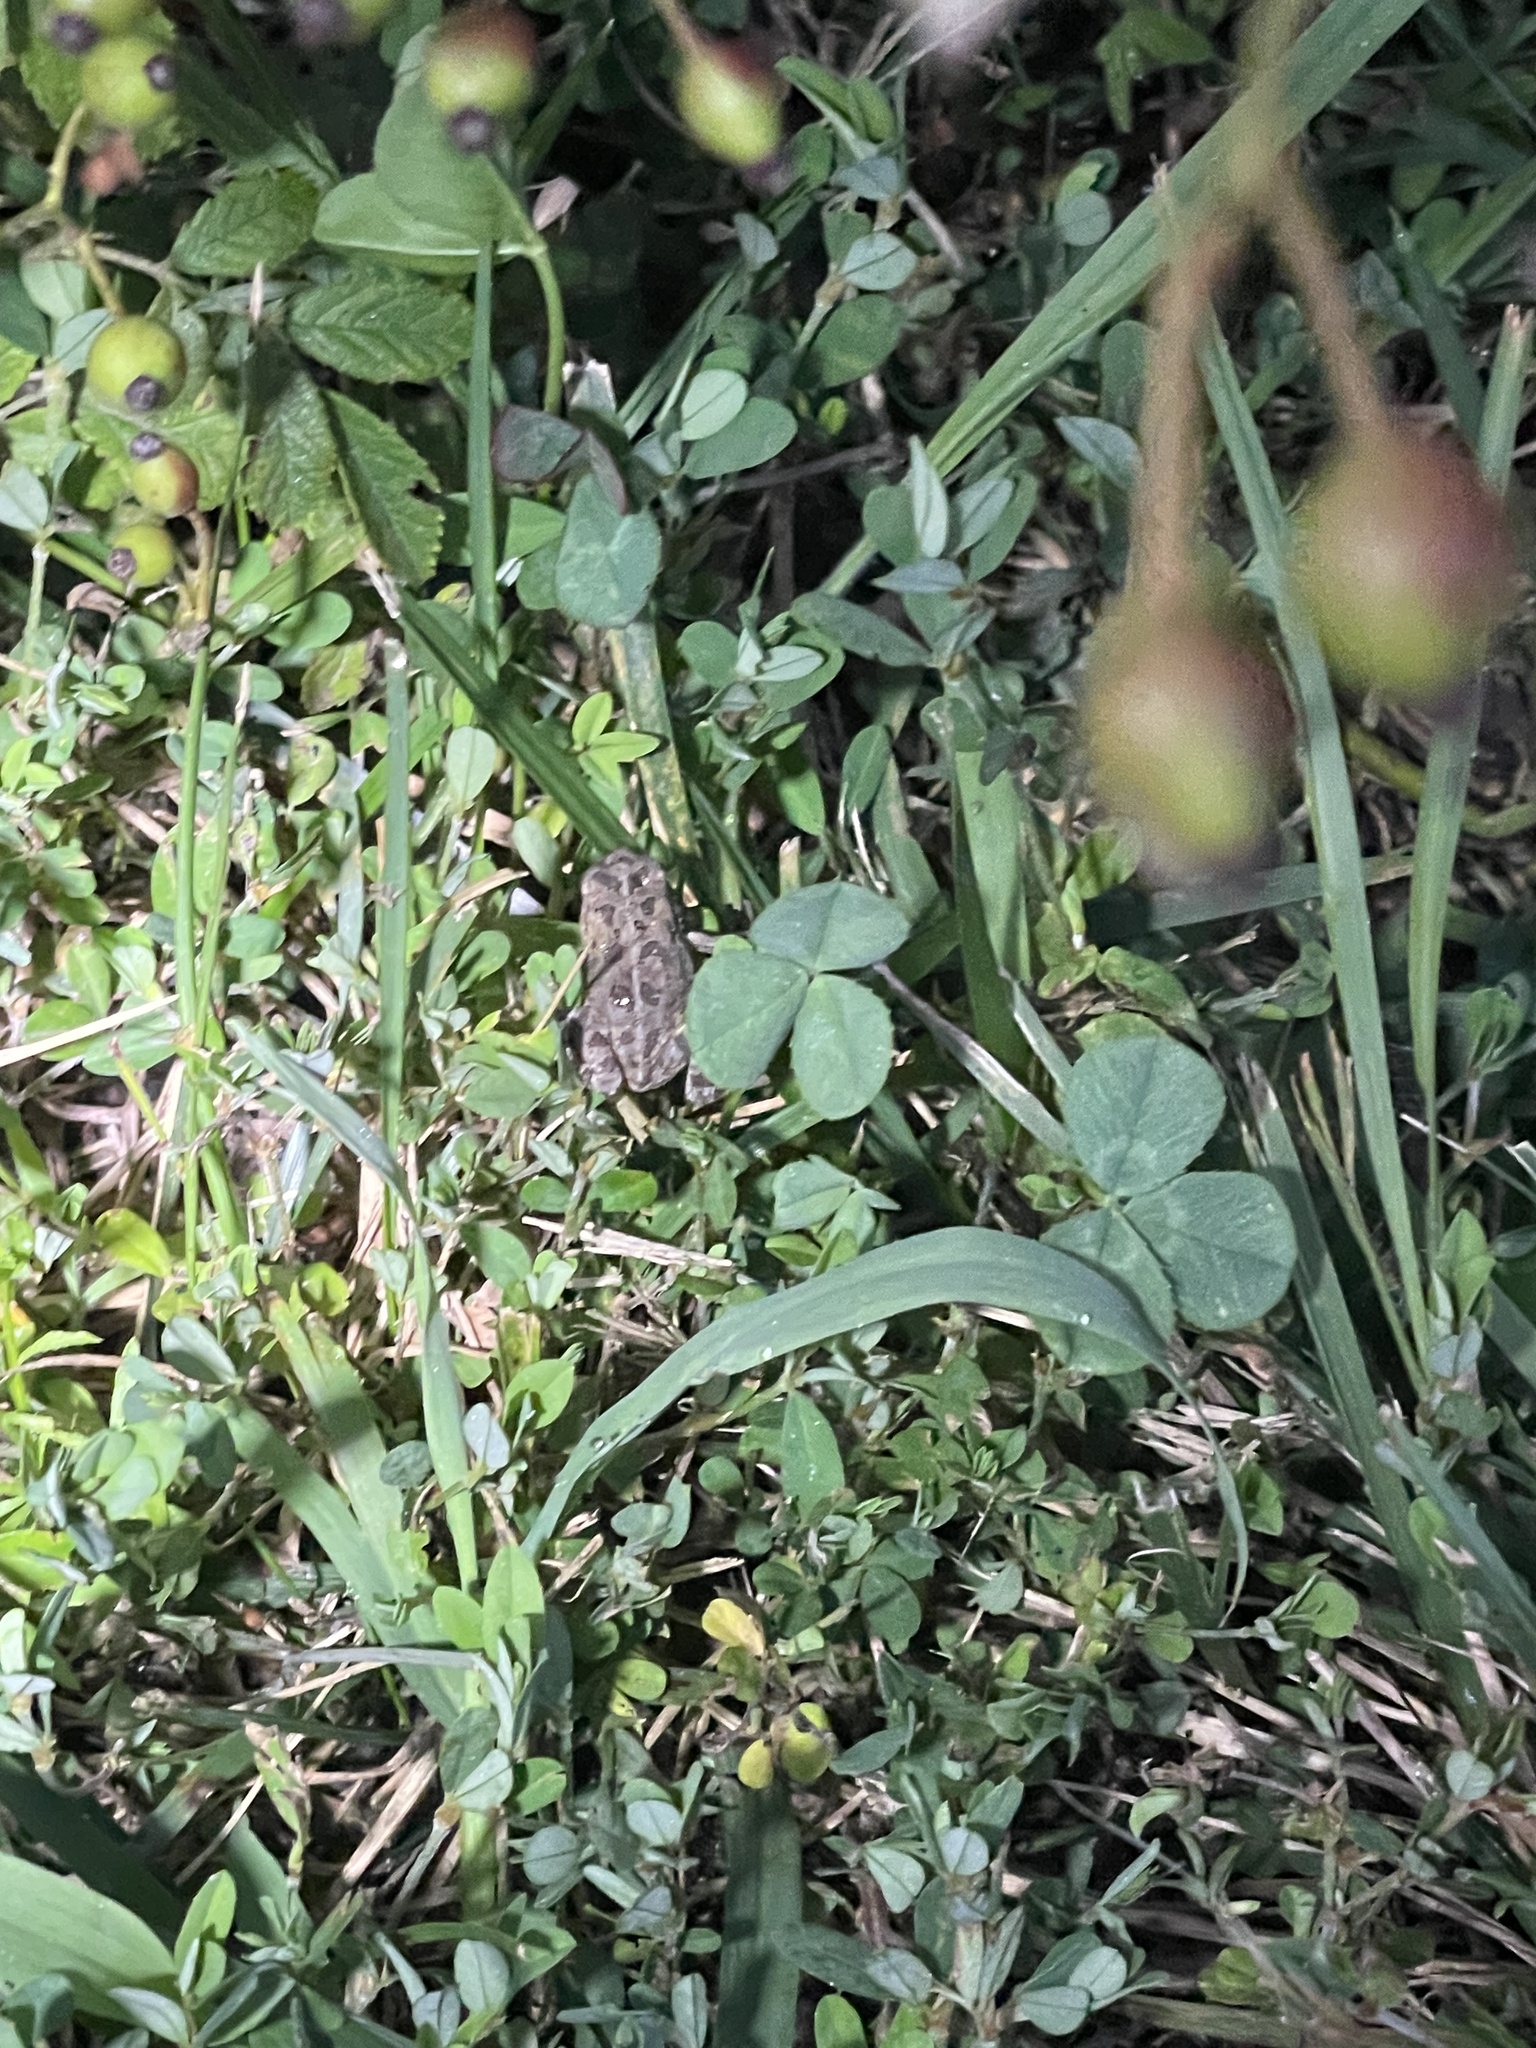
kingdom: Animalia
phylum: Chordata
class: Amphibia
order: Anura
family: Bufonidae
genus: Anaxyrus
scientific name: Anaxyrus fowleri
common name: Fowler's toad
